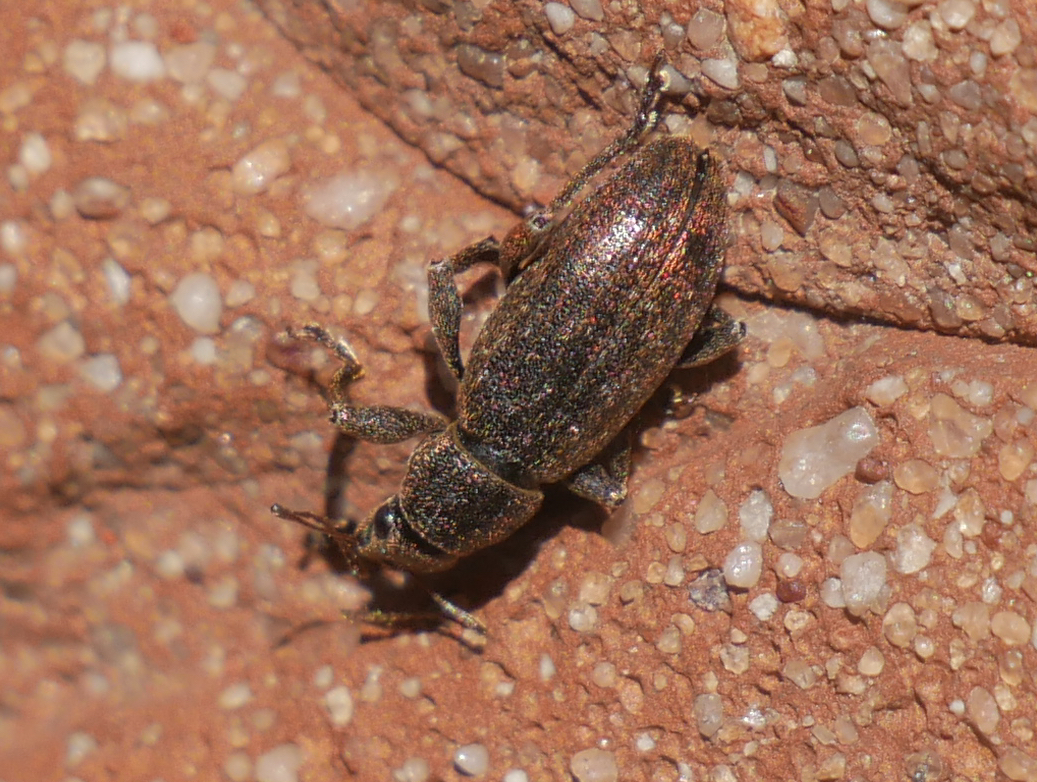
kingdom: Animalia
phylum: Arthropoda
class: Insecta
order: Coleoptera
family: Curculionidae
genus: Brachyderes
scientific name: Brachyderes incanus
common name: Weevil
